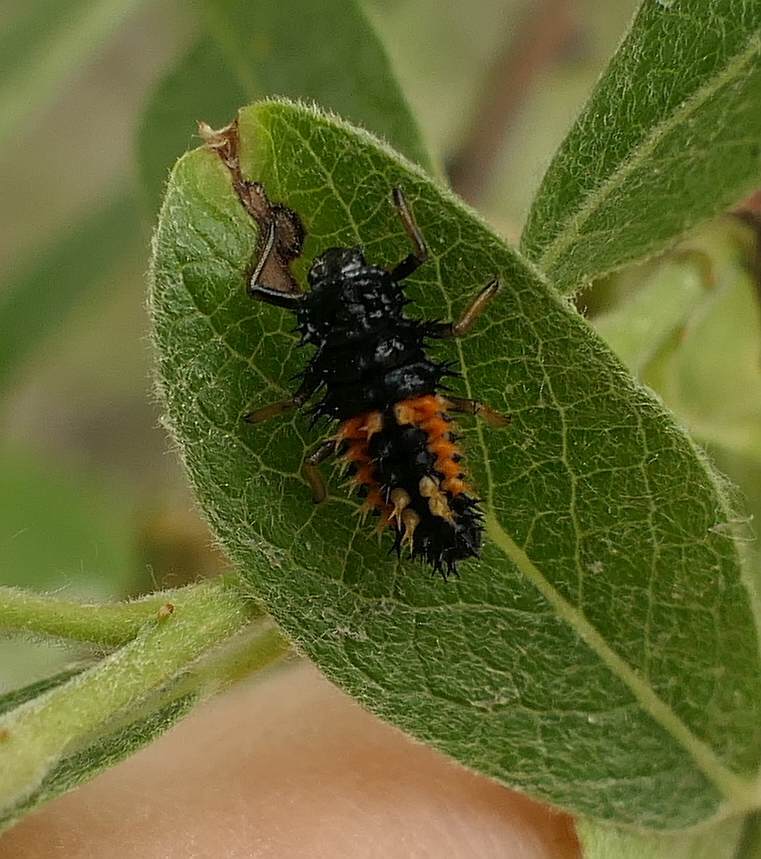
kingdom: Animalia
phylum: Arthropoda
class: Insecta
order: Coleoptera
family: Coccinellidae
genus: Harmonia
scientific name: Harmonia axyridis
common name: Harlequin ladybird
